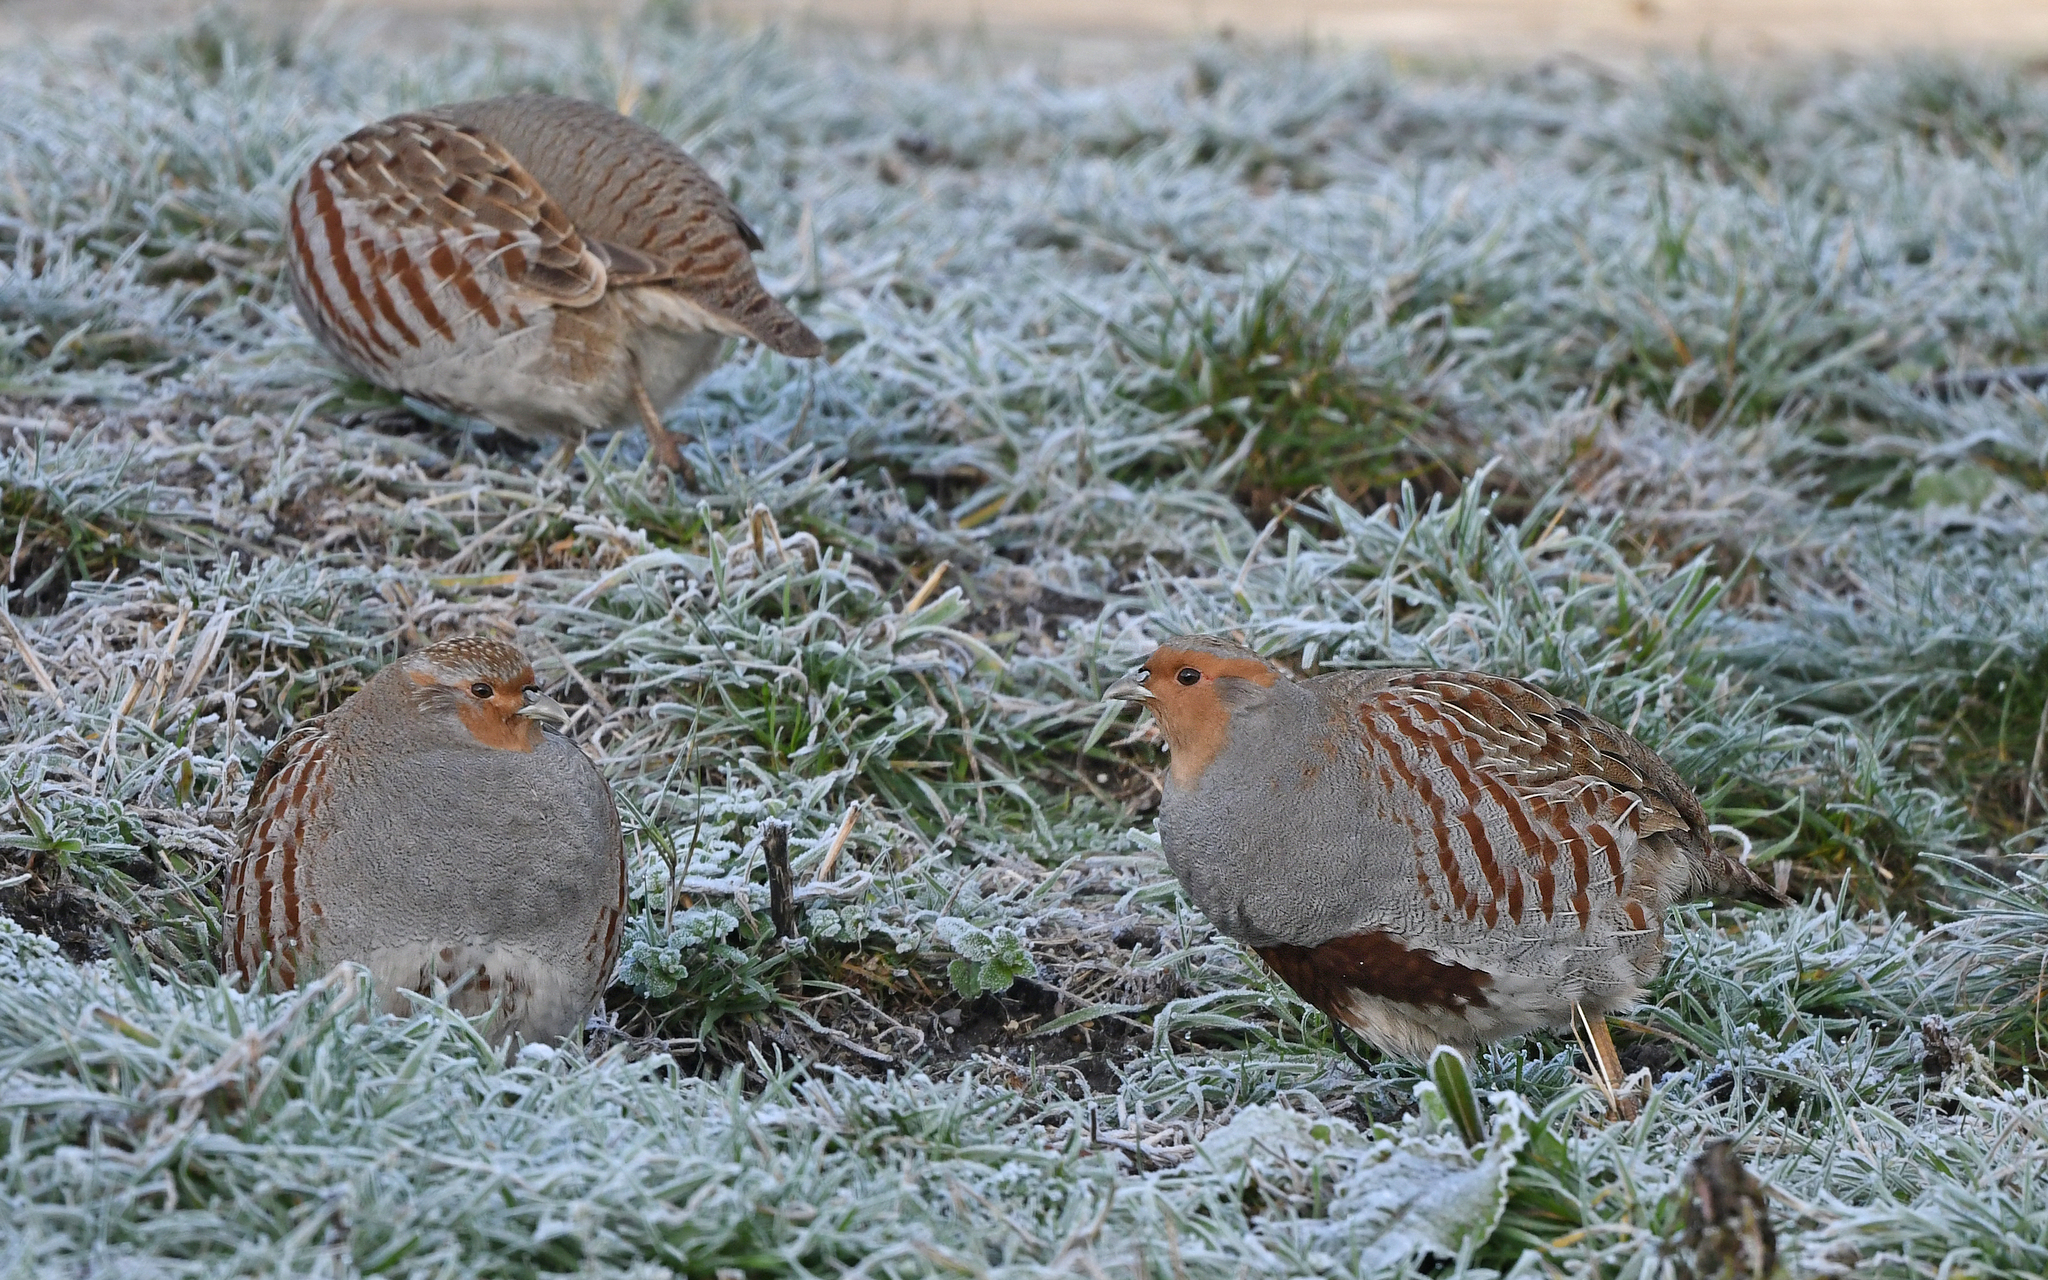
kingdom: Animalia
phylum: Chordata
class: Aves
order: Galliformes
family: Phasianidae
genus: Perdix
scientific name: Perdix perdix
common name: Grey partridge
